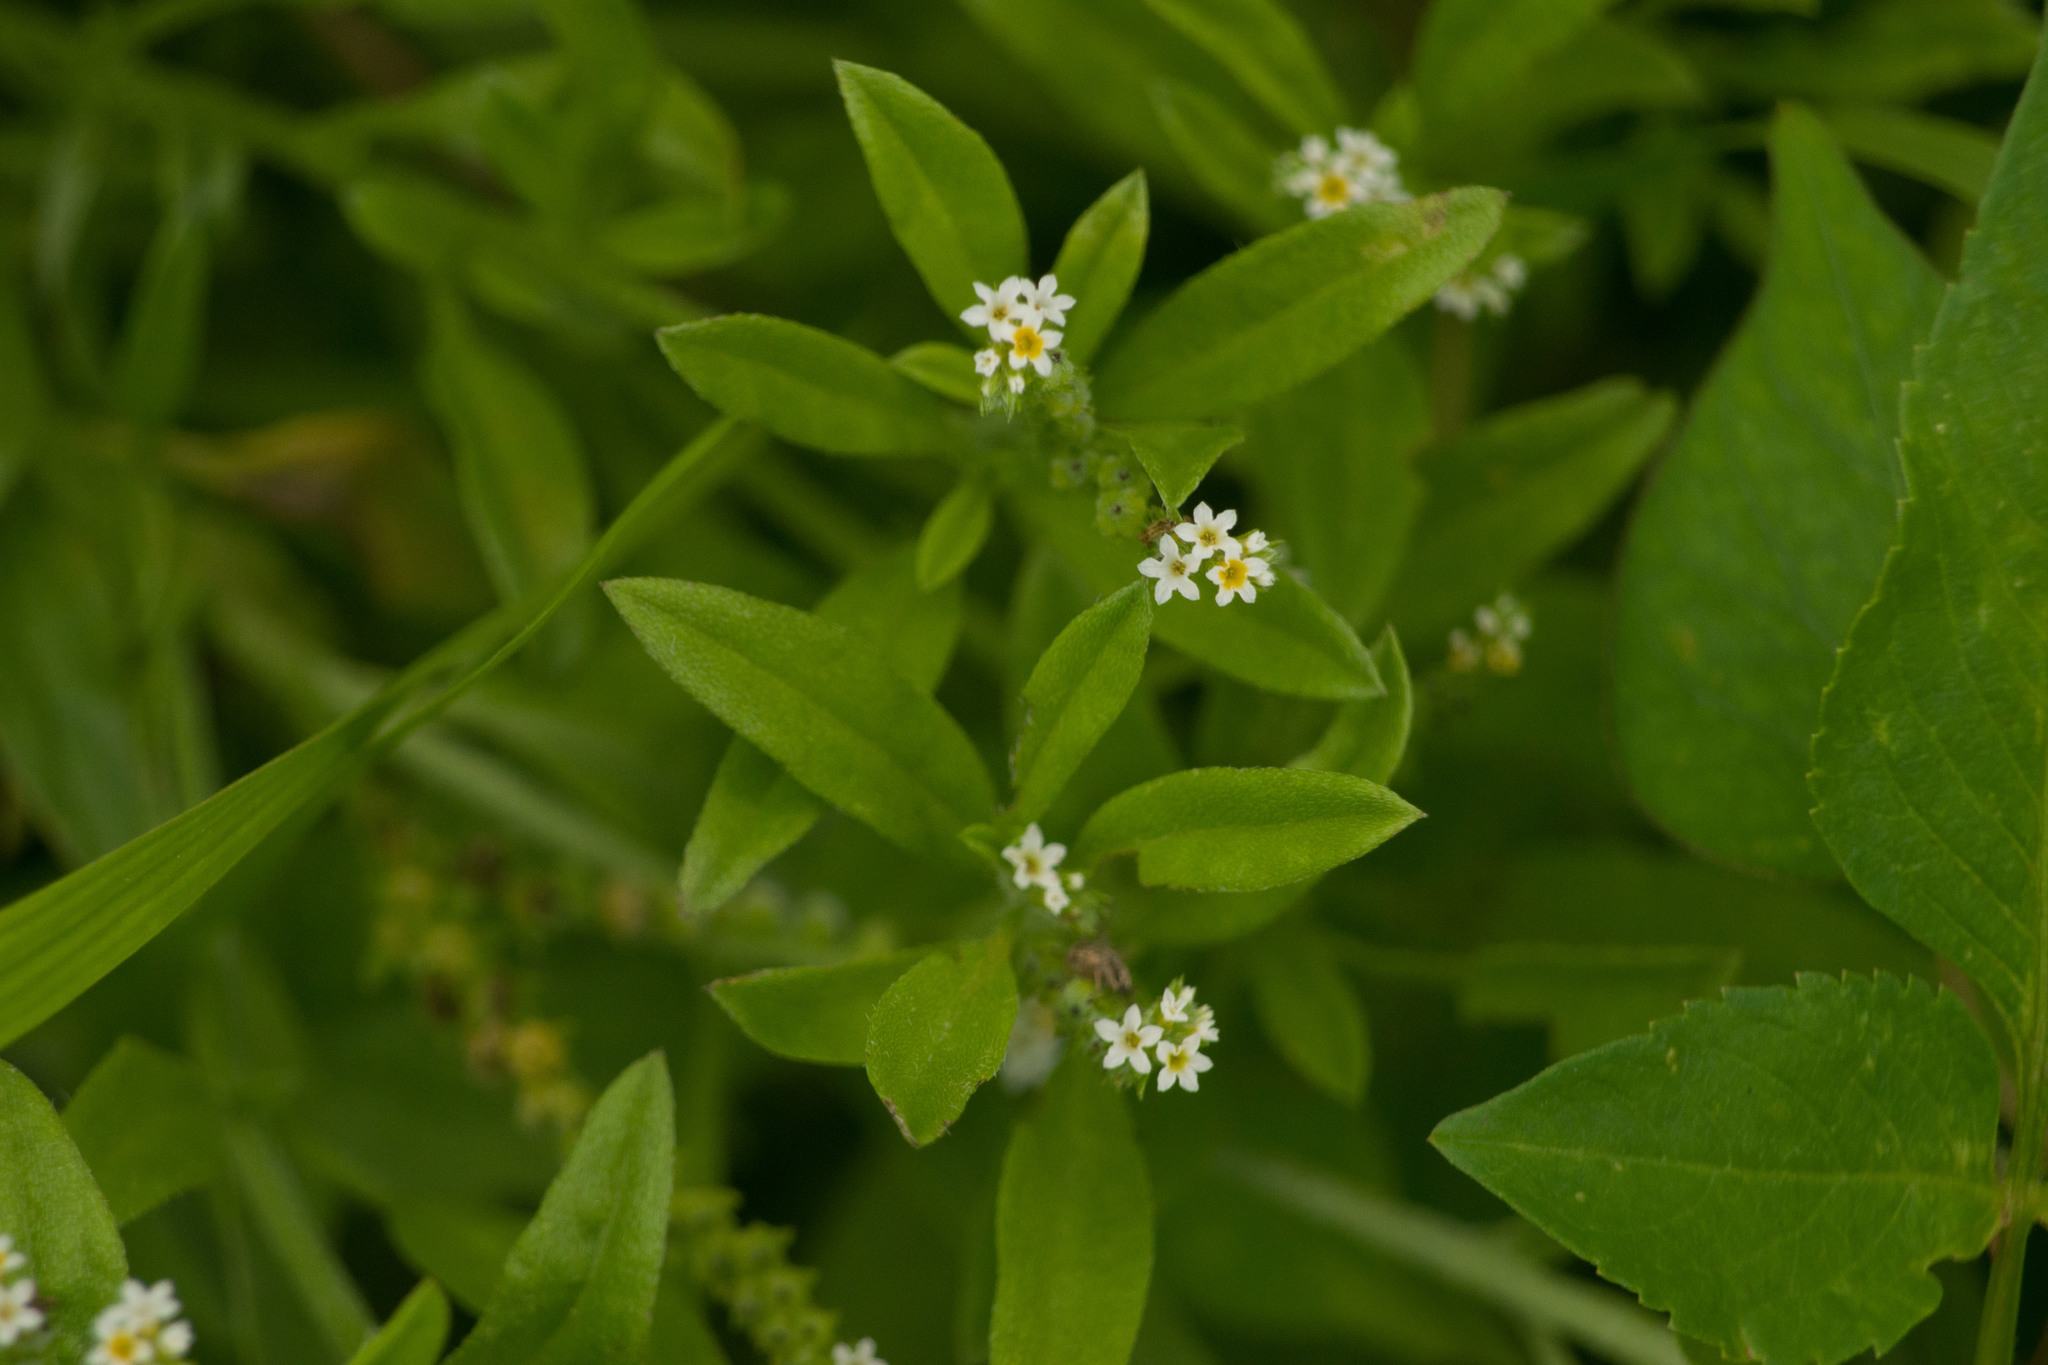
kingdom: Plantae
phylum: Tracheophyta
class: Magnoliopsida
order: Boraginales
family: Heliotropiaceae
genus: Euploca
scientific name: Euploca procumbens
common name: Fourspike heliotrope
